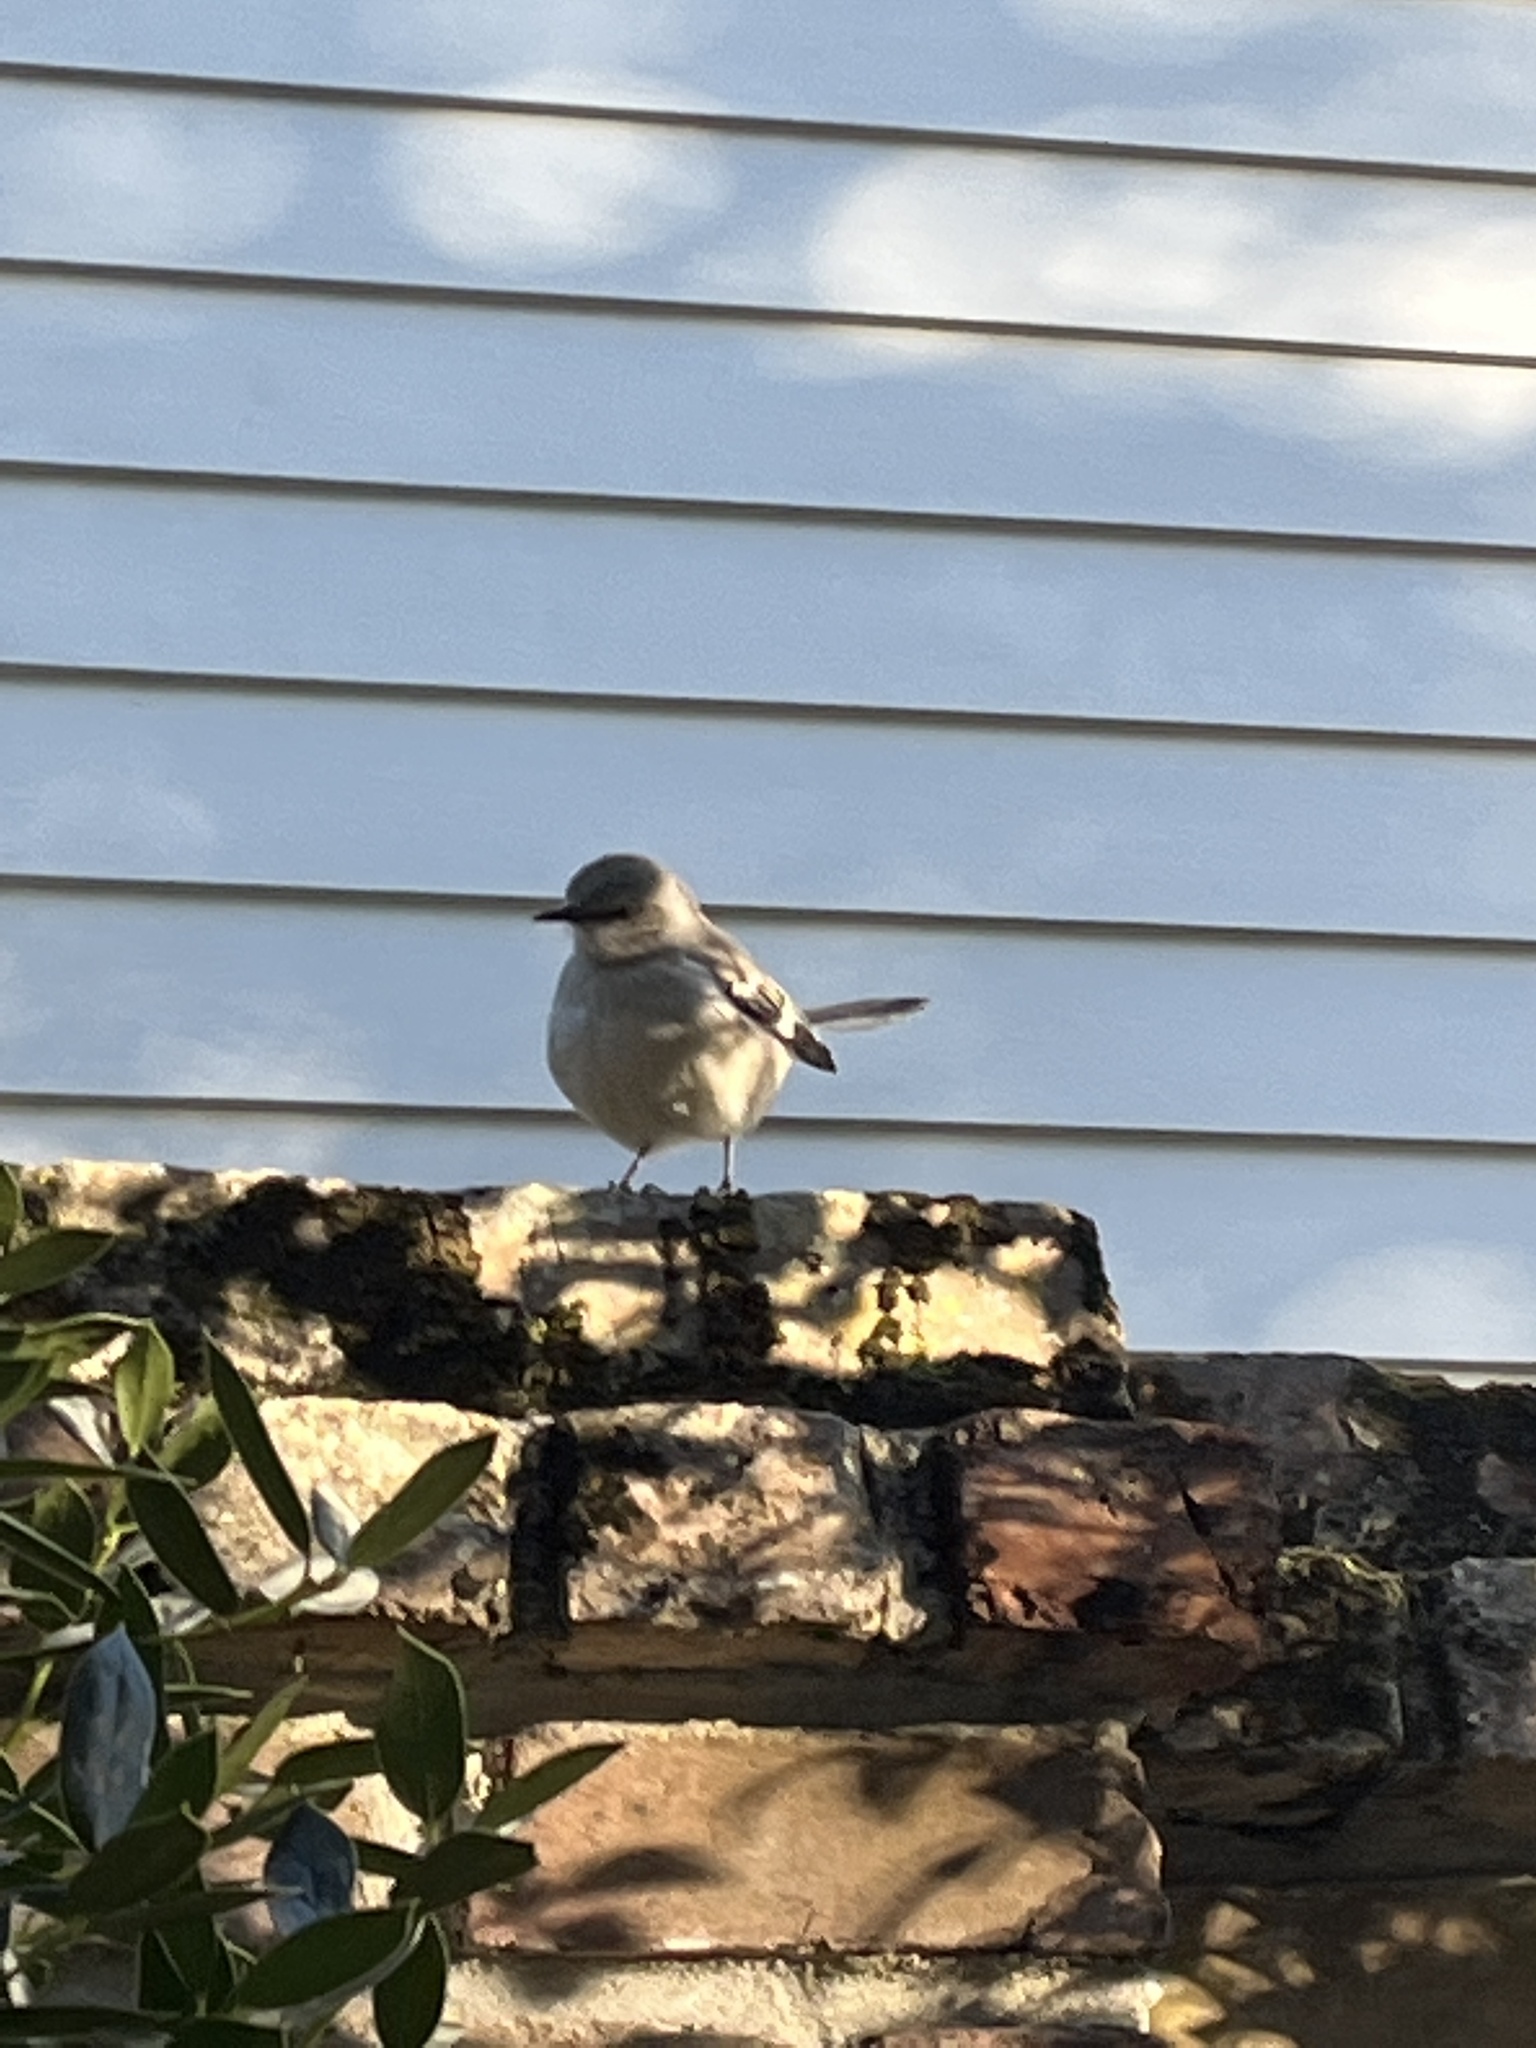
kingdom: Animalia
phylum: Chordata
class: Aves
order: Passeriformes
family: Mimidae
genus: Mimus
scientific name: Mimus polyglottos
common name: Northern mockingbird
